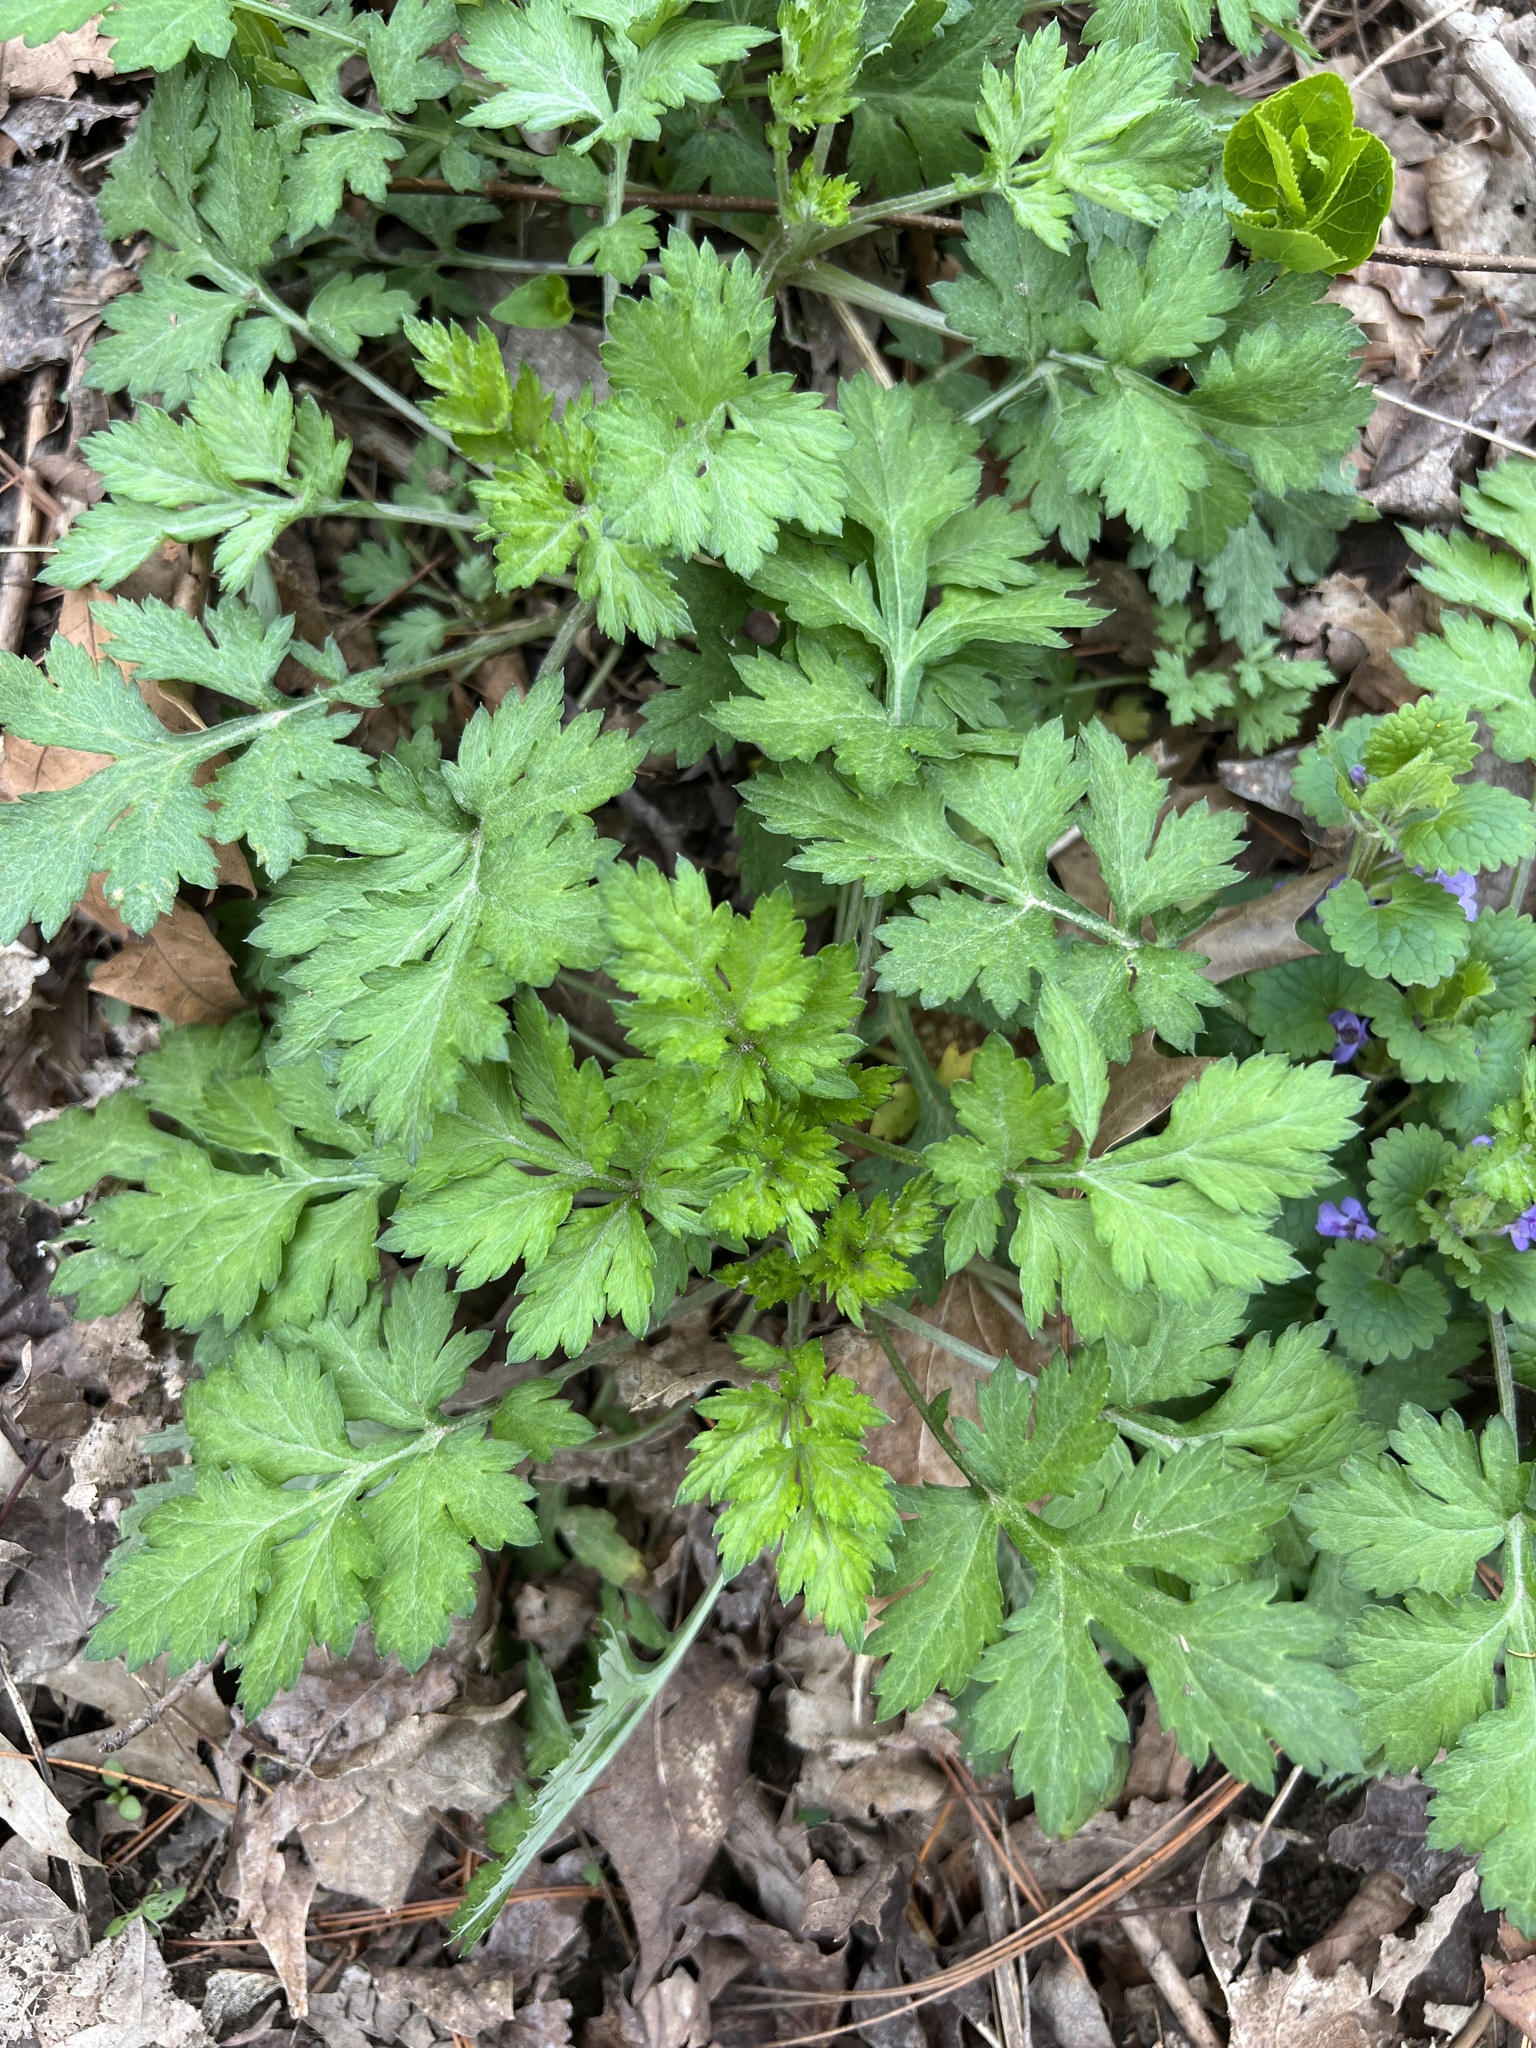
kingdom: Plantae
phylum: Tracheophyta
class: Magnoliopsida
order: Asterales
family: Asteraceae
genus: Artemisia
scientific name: Artemisia vulgaris
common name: Mugwort
